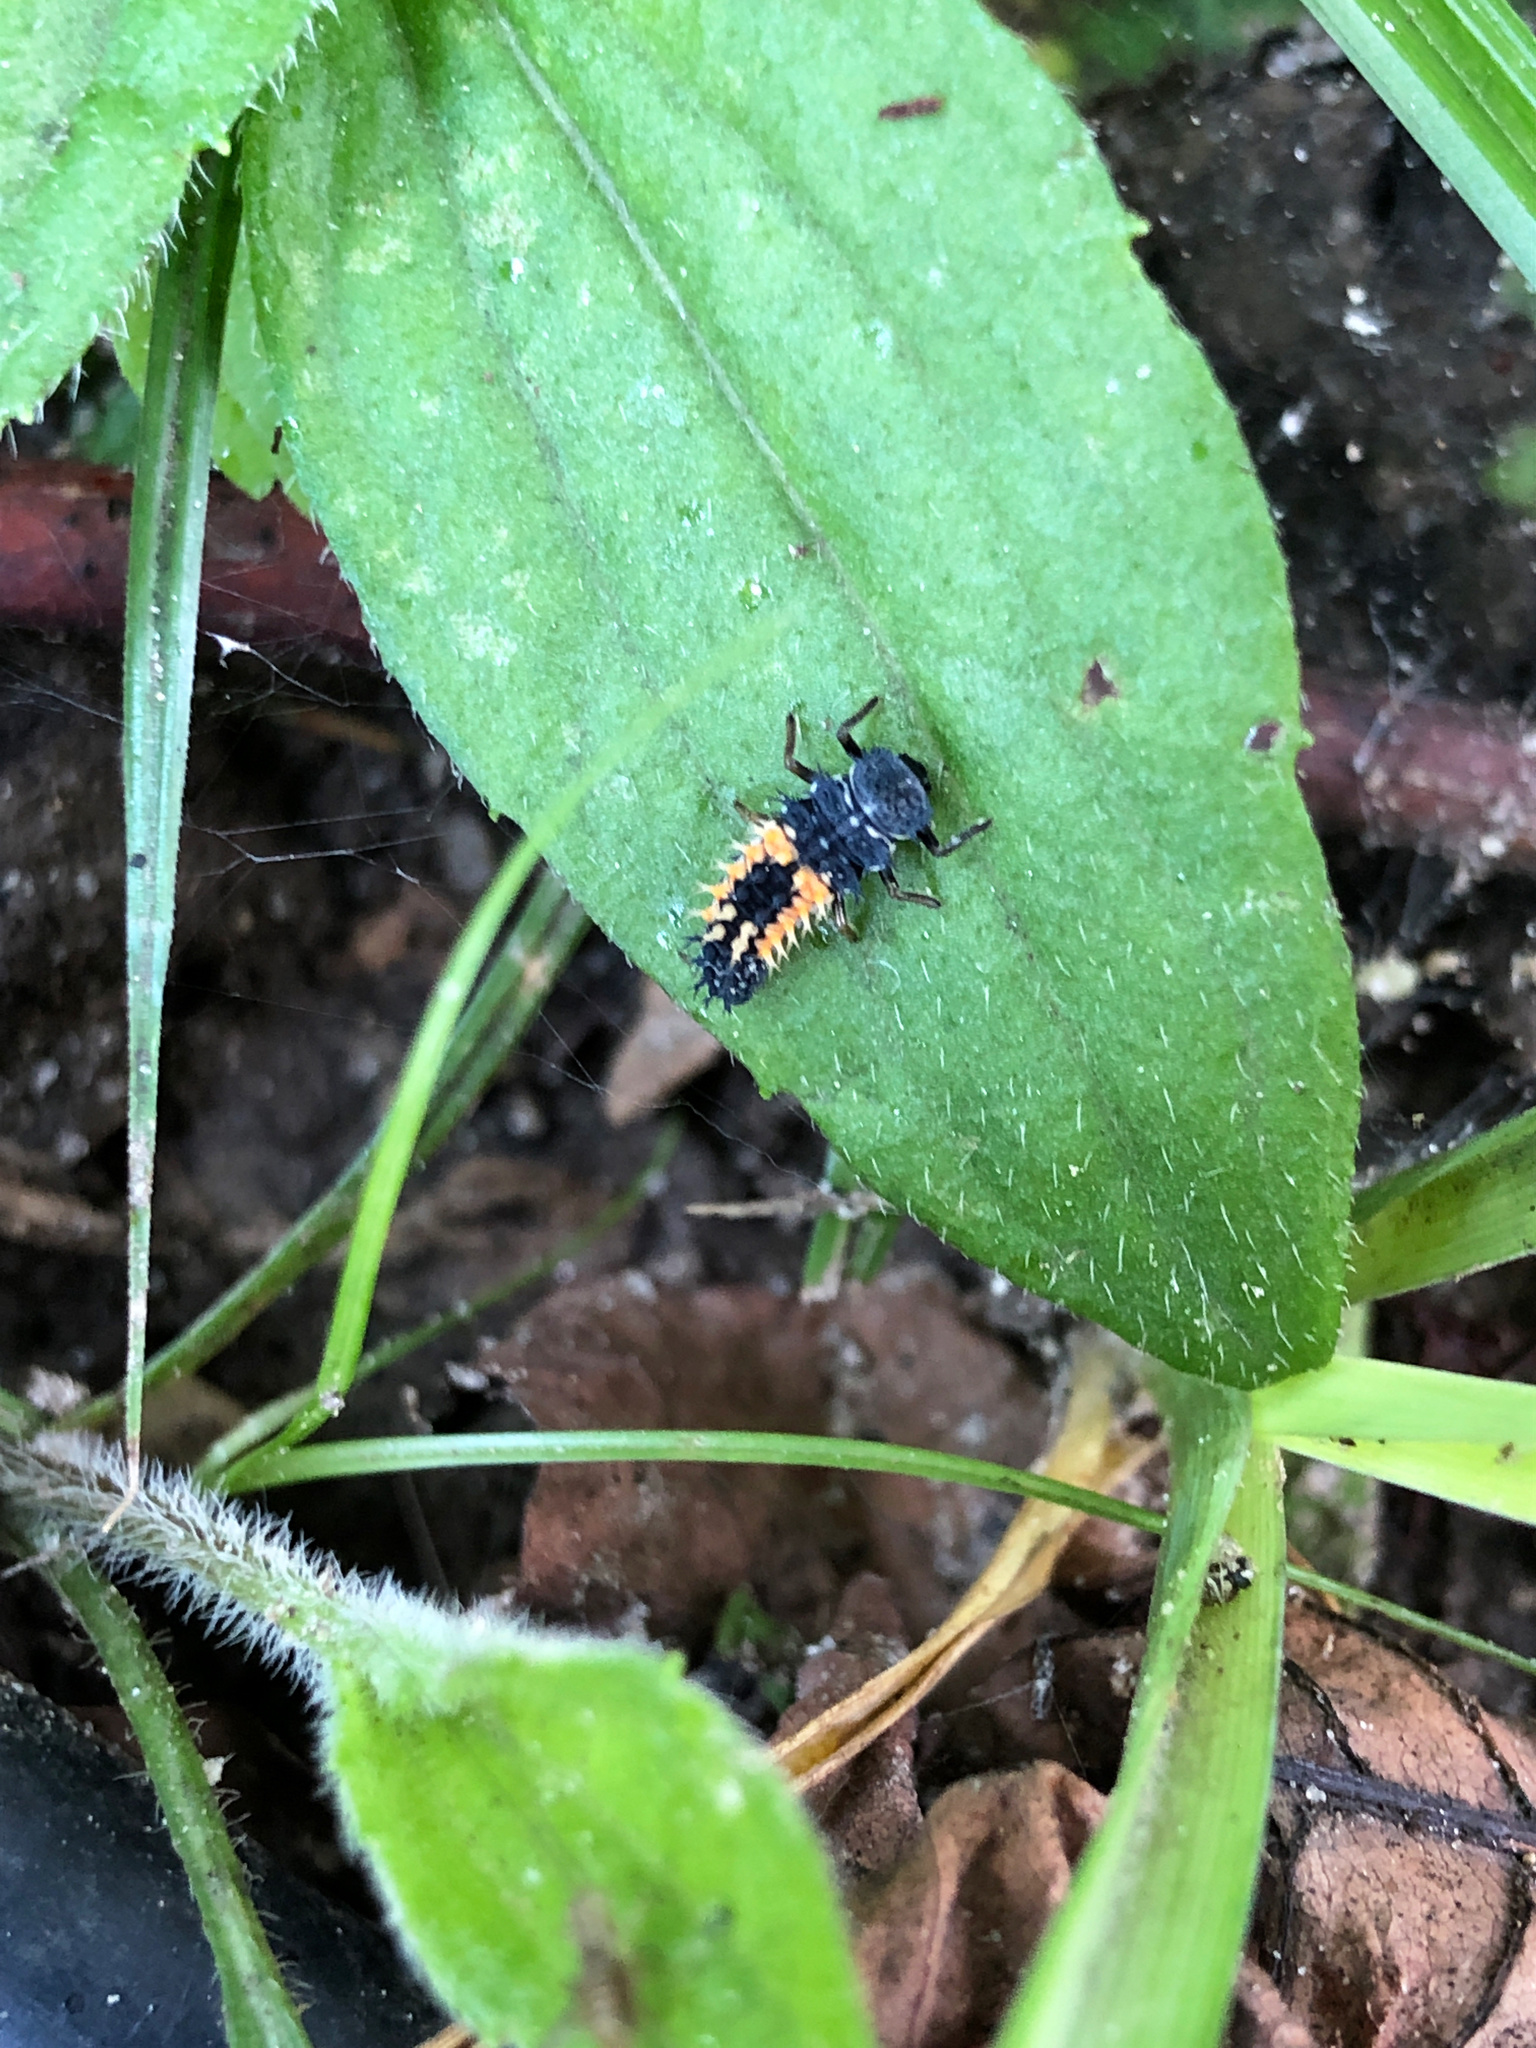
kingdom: Animalia
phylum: Arthropoda
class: Insecta
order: Coleoptera
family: Coccinellidae
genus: Harmonia
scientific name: Harmonia axyridis
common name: Harlequin ladybird
